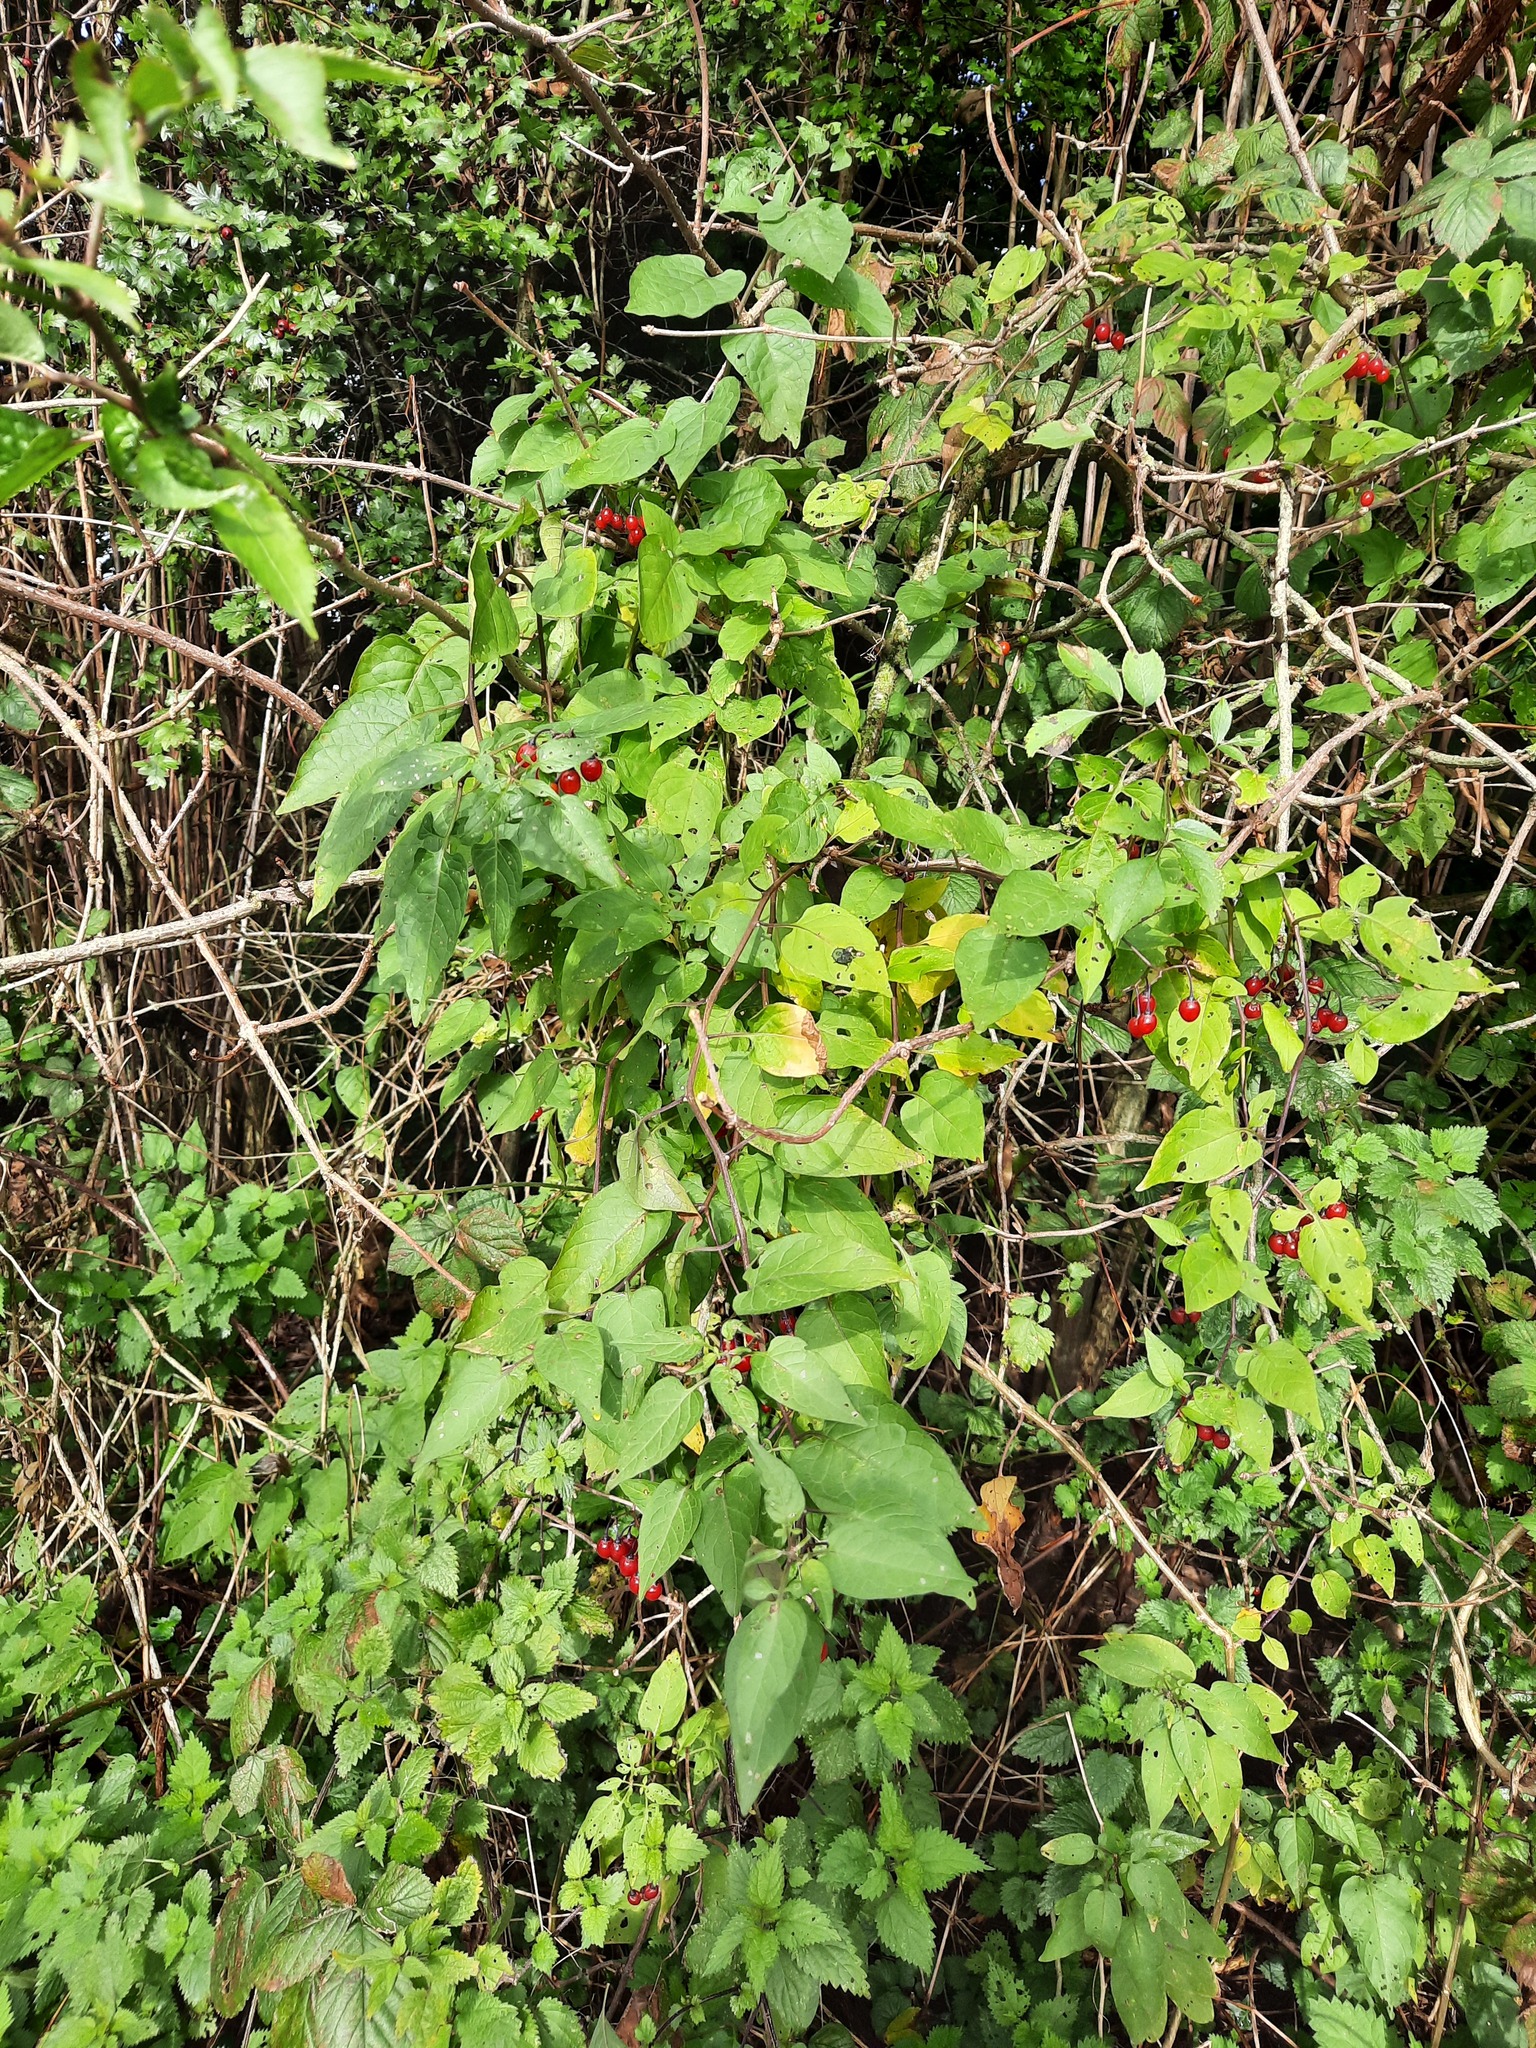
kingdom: Plantae
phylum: Tracheophyta
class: Magnoliopsida
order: Solanales
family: Solanaceae
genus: Solanum
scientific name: Solanum dulcamara
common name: Climbing nightshade
